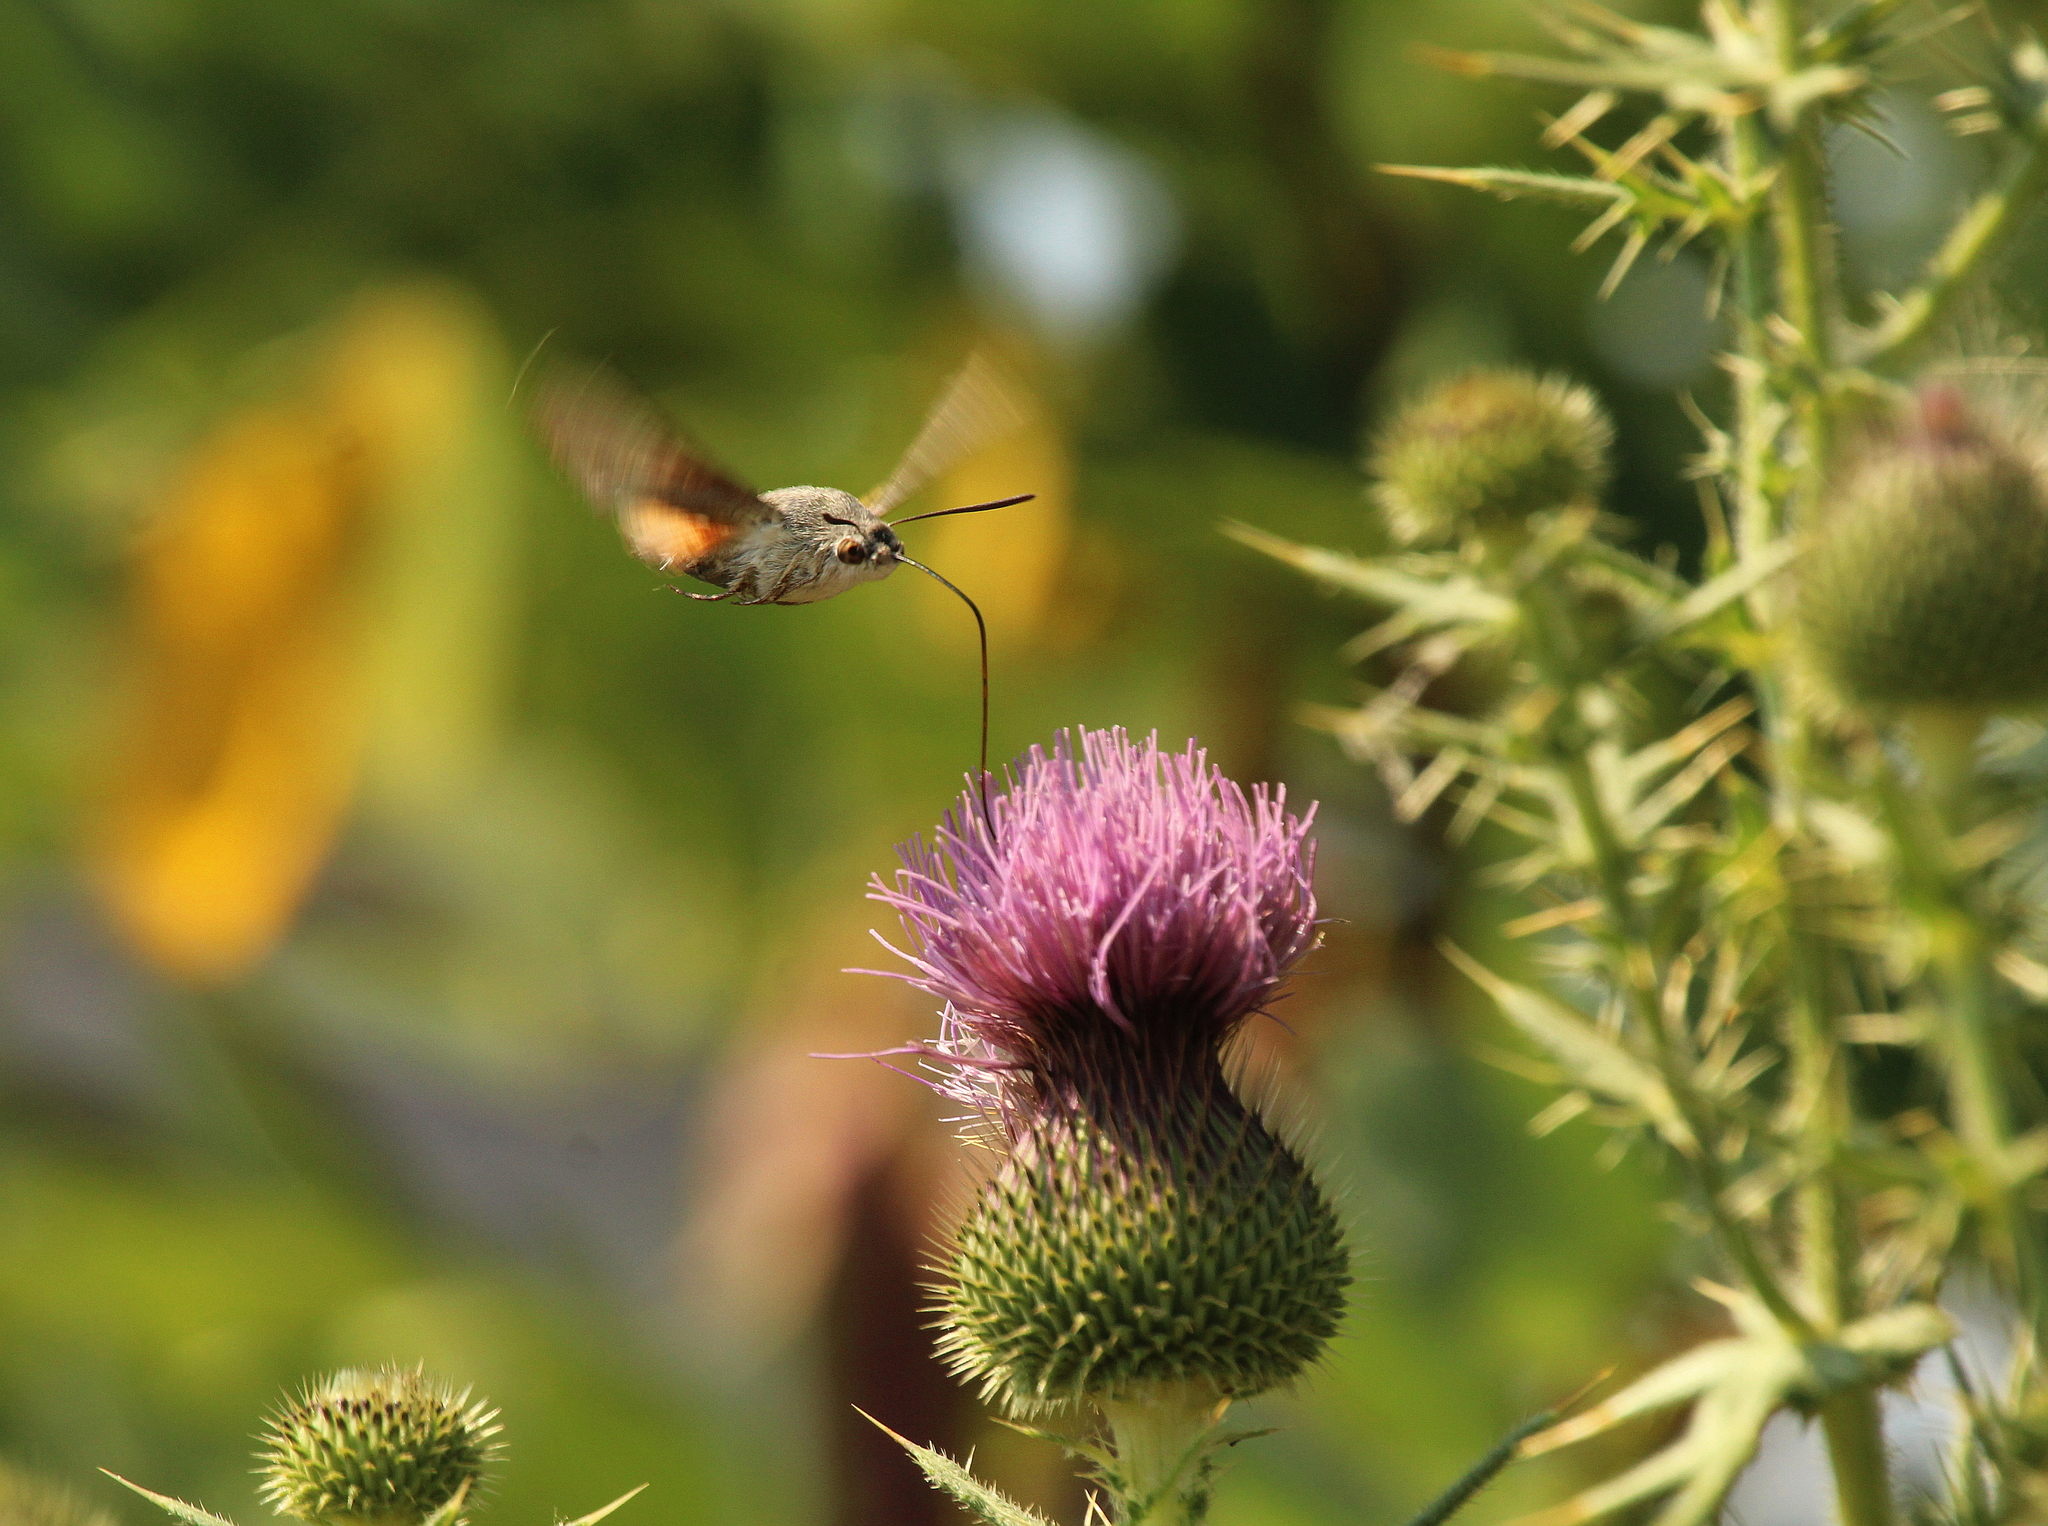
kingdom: Animalia
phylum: Arthropoda
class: Insecta
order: Lepidoptera
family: Sphingidae
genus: Macroglossum
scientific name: Macroglossum stellatarum
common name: Humming-bird hawk-moth
